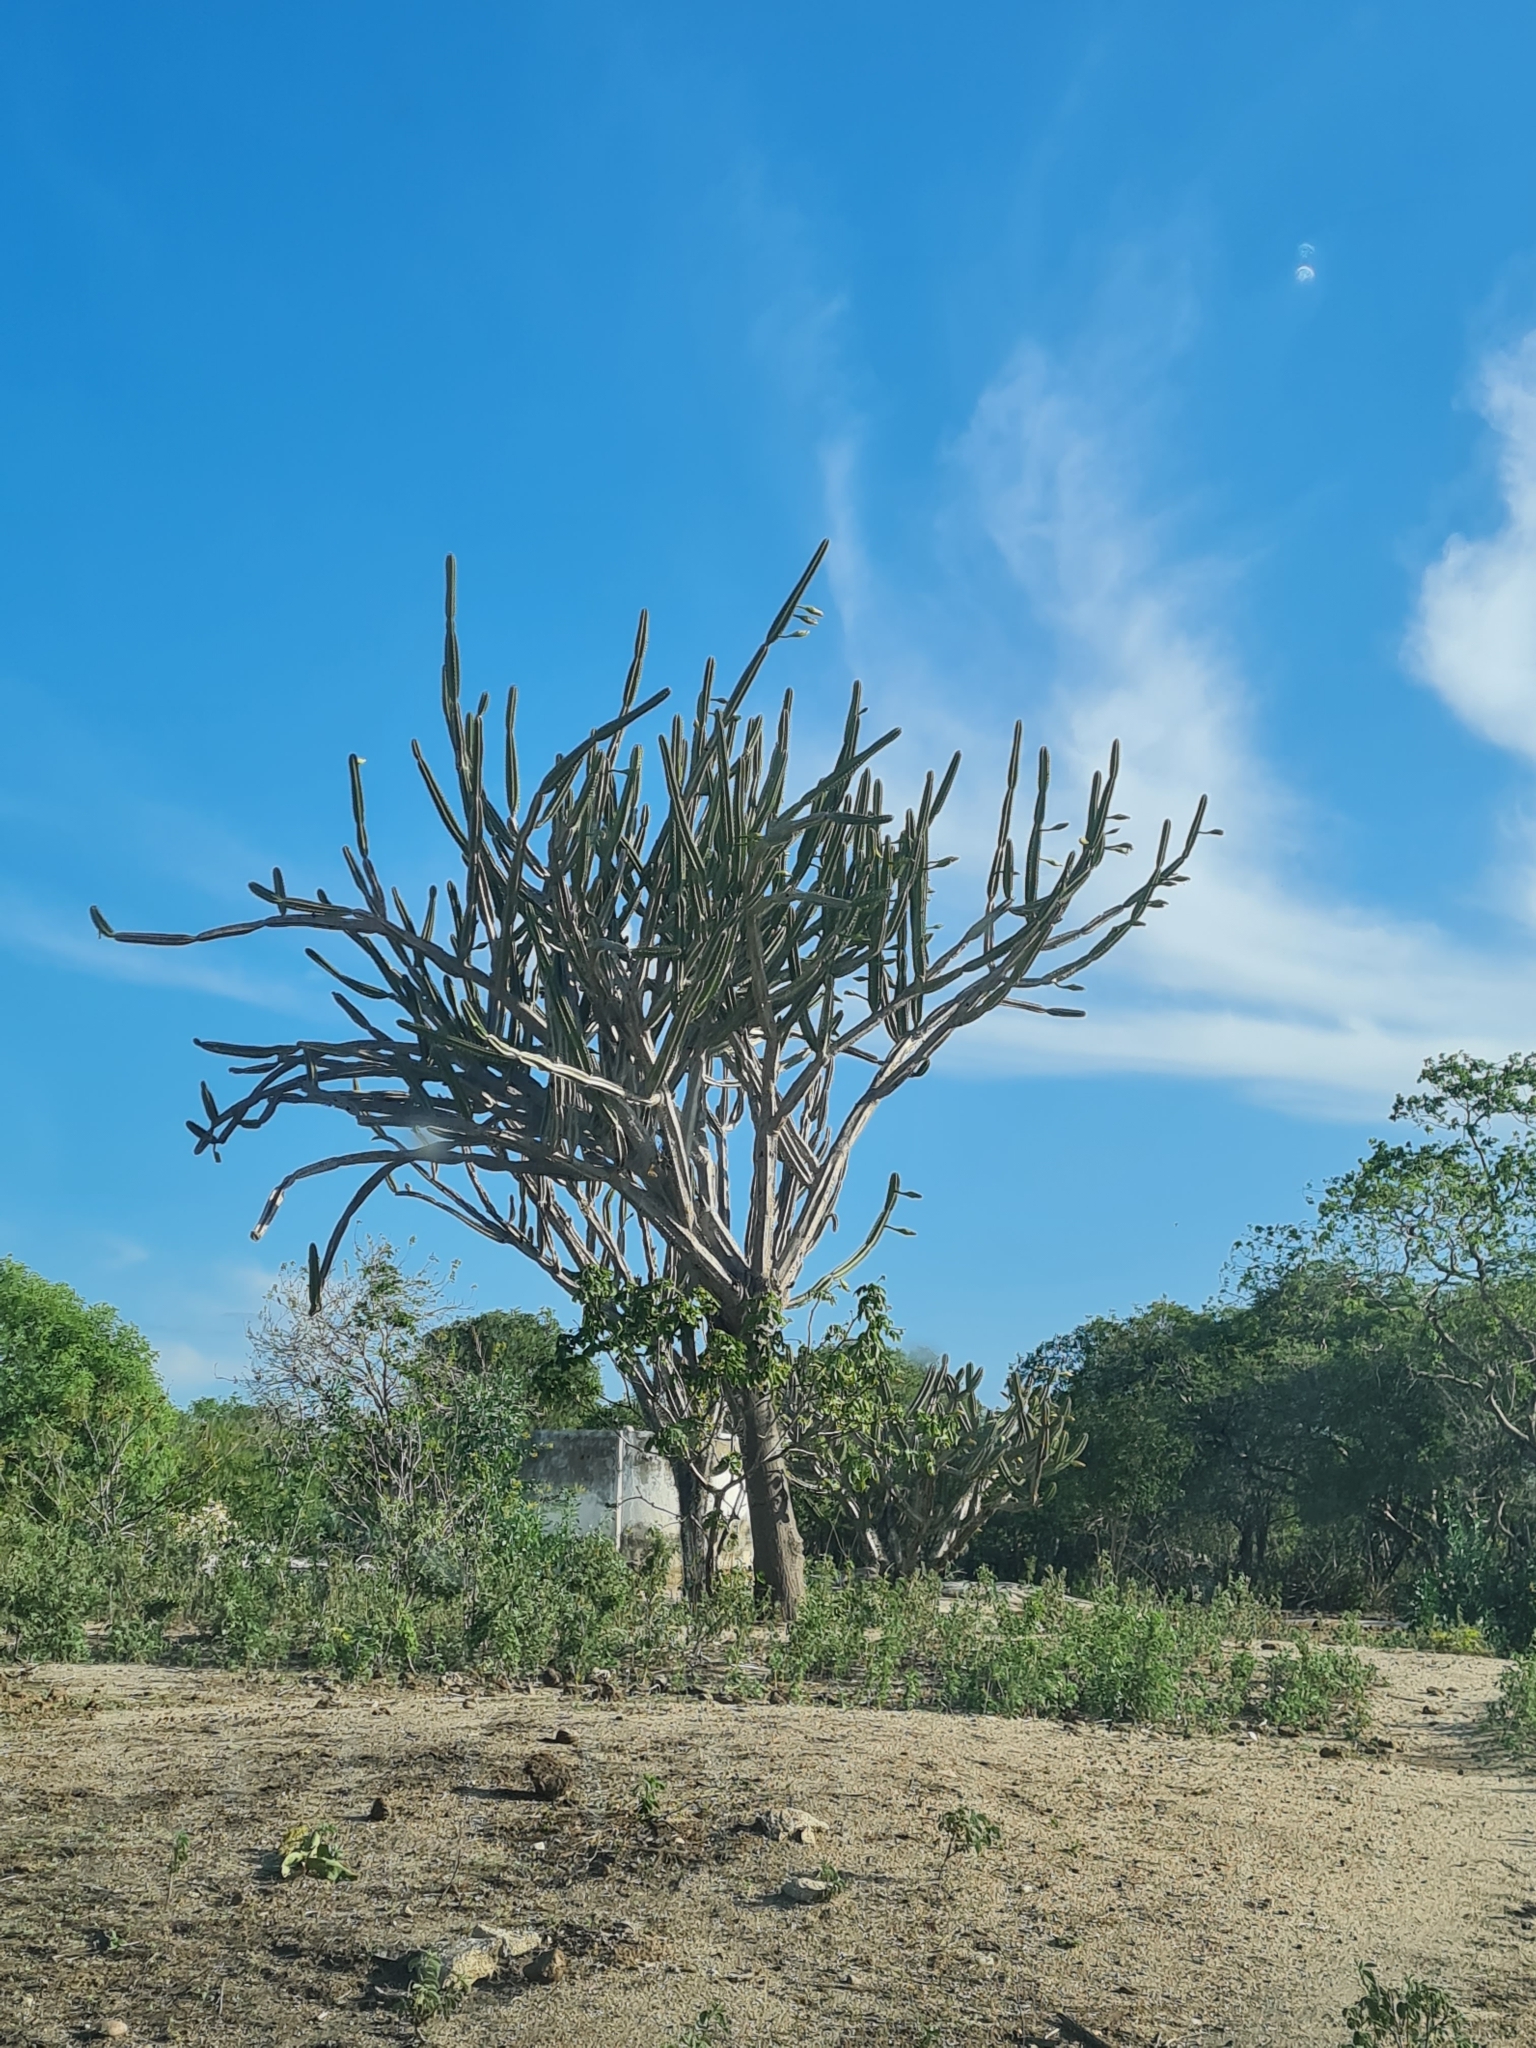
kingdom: Plantae
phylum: Tracheophyta
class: Magnoliopsida
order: Caryophyllales
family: Cactaceae
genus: Cereus
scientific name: Cereus jamacaru
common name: Queen-of-the-night
